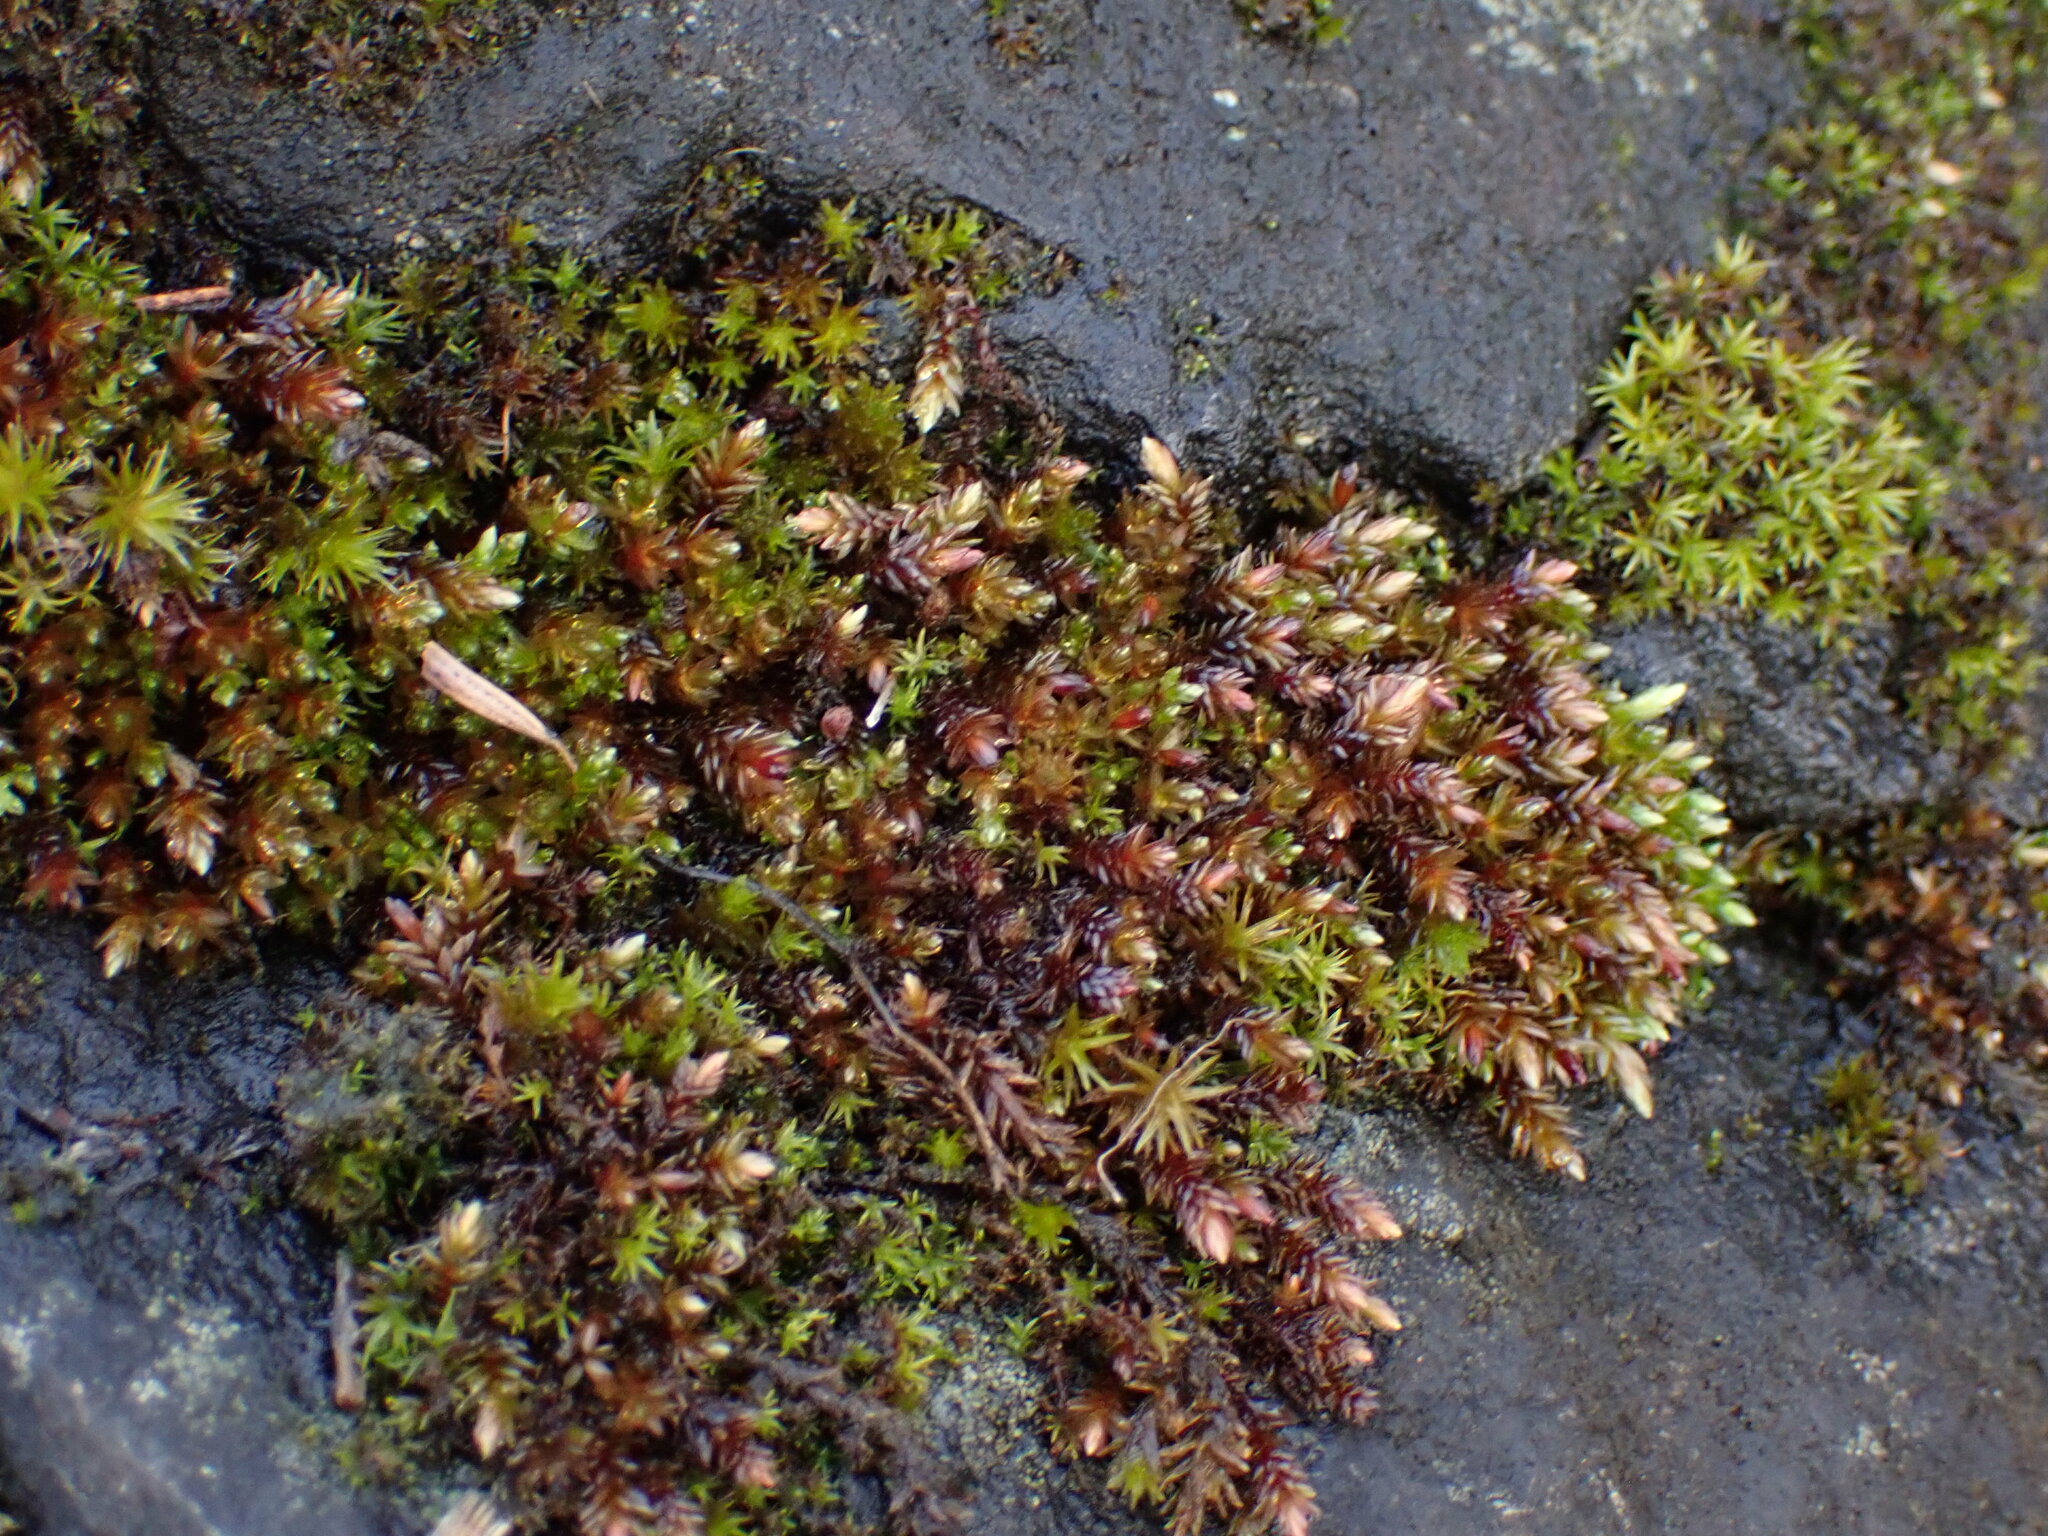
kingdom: Plantae
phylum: Bryophyta
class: Bryopsida
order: Bryales
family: Bryaceae
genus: Imbribryum
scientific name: Imbribryum miniatum
